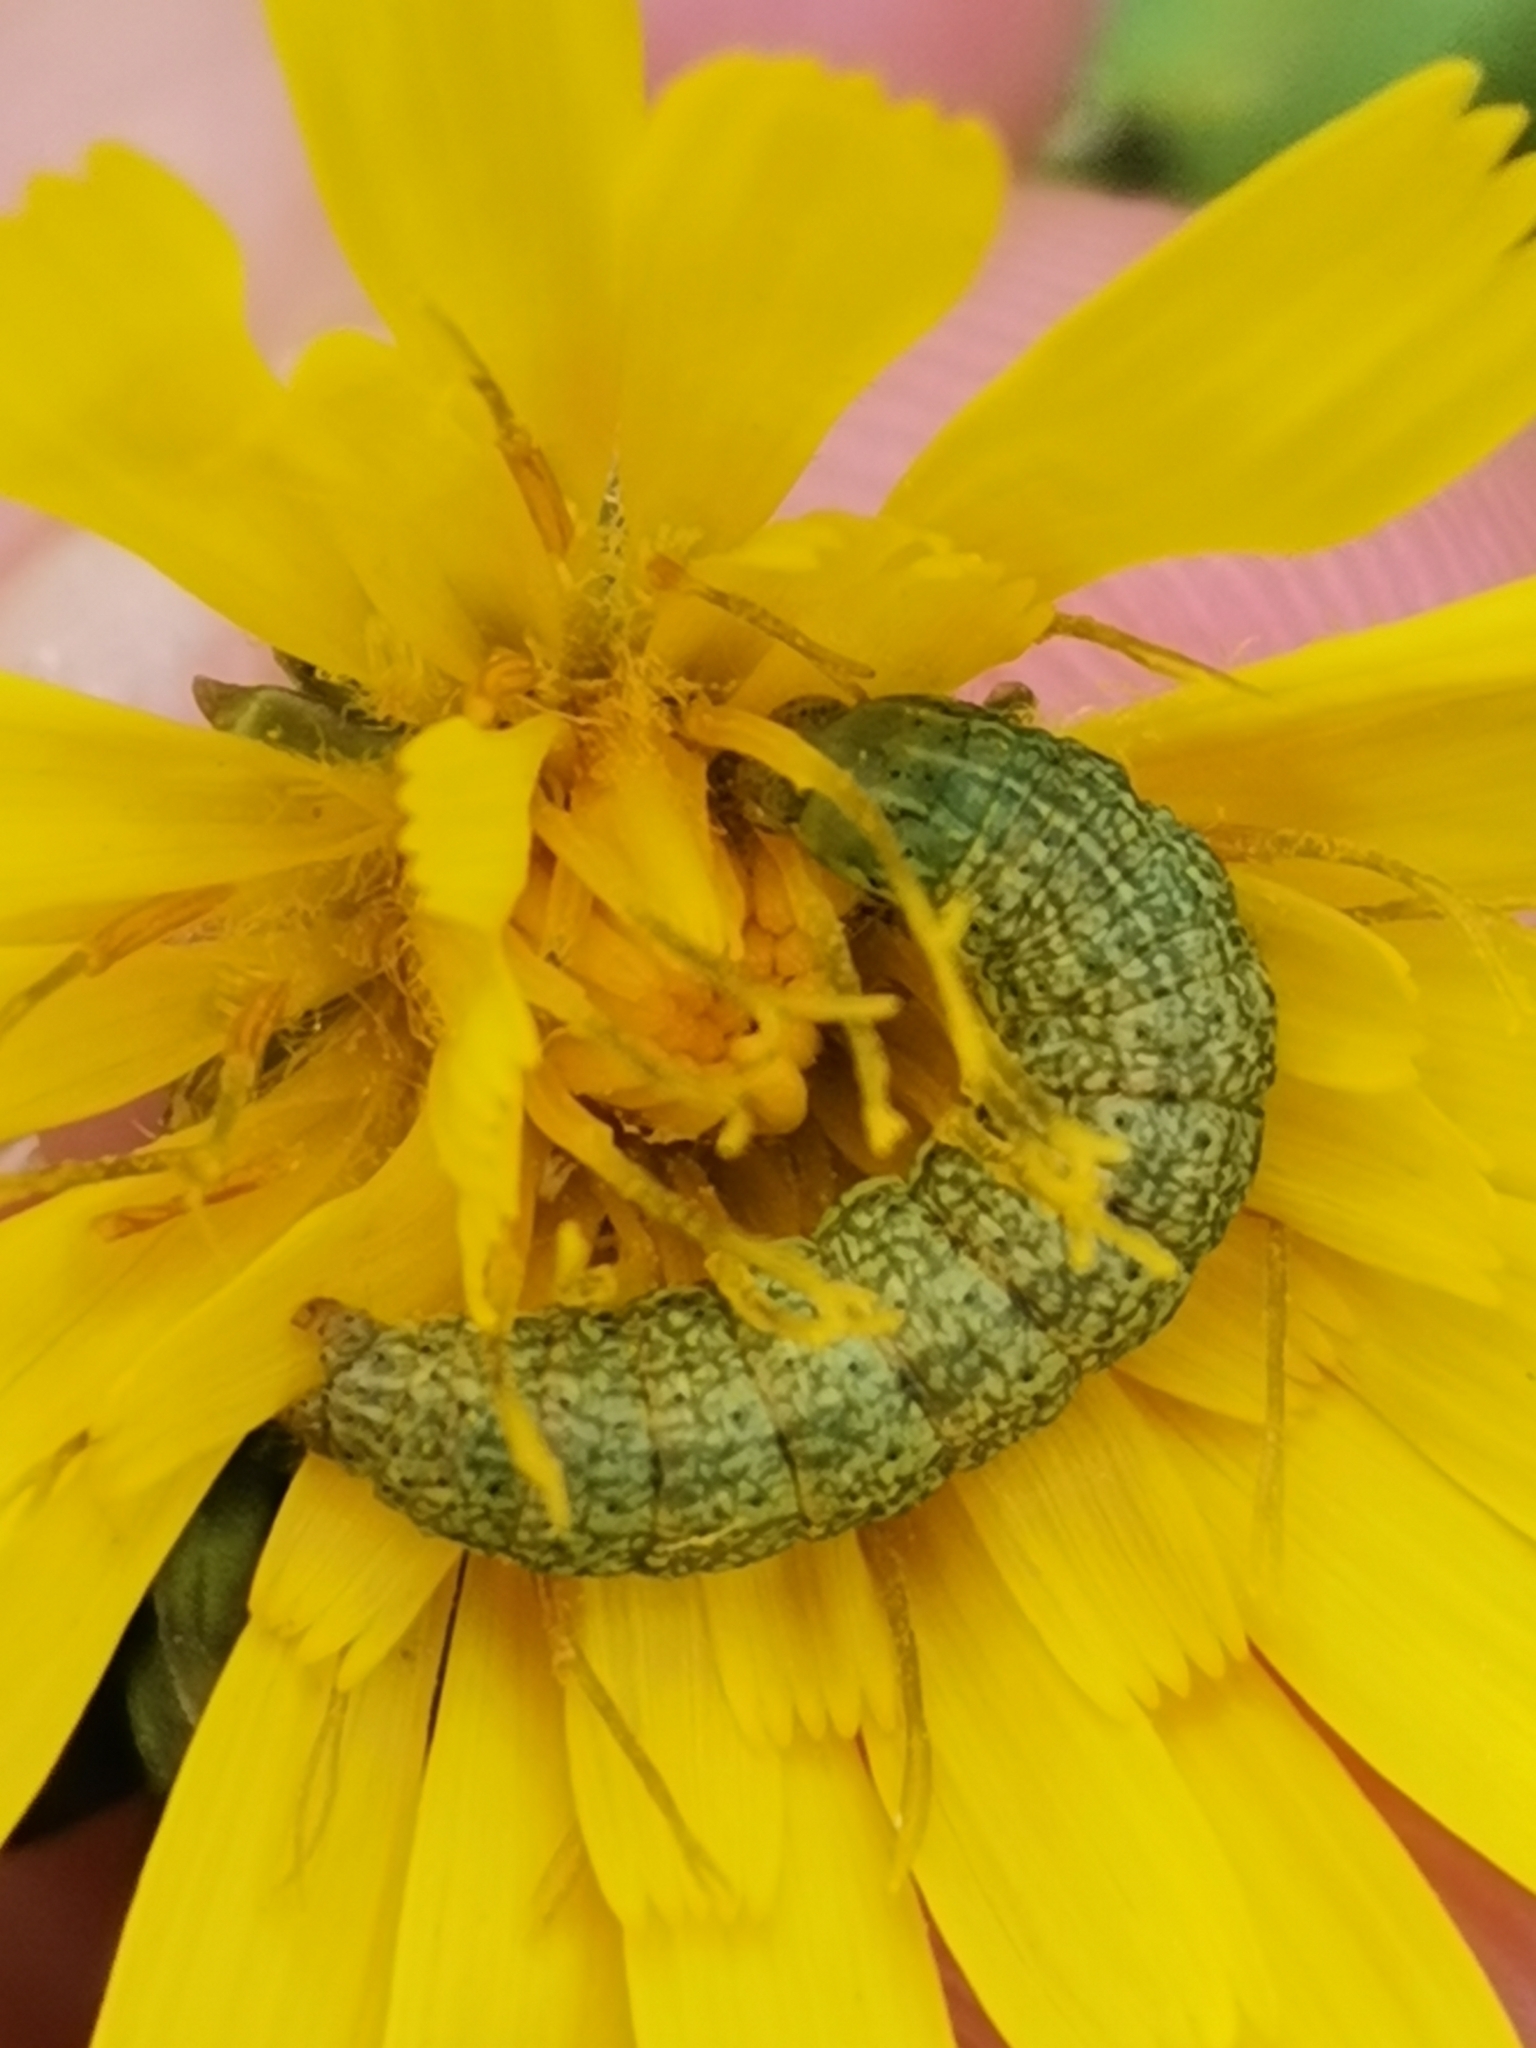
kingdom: Animalia
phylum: Arthropoda
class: Insecta
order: Lepidoptera
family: Noctuidae
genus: Hecatera
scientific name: Hecatera bicolorata
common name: Broad-barred white
